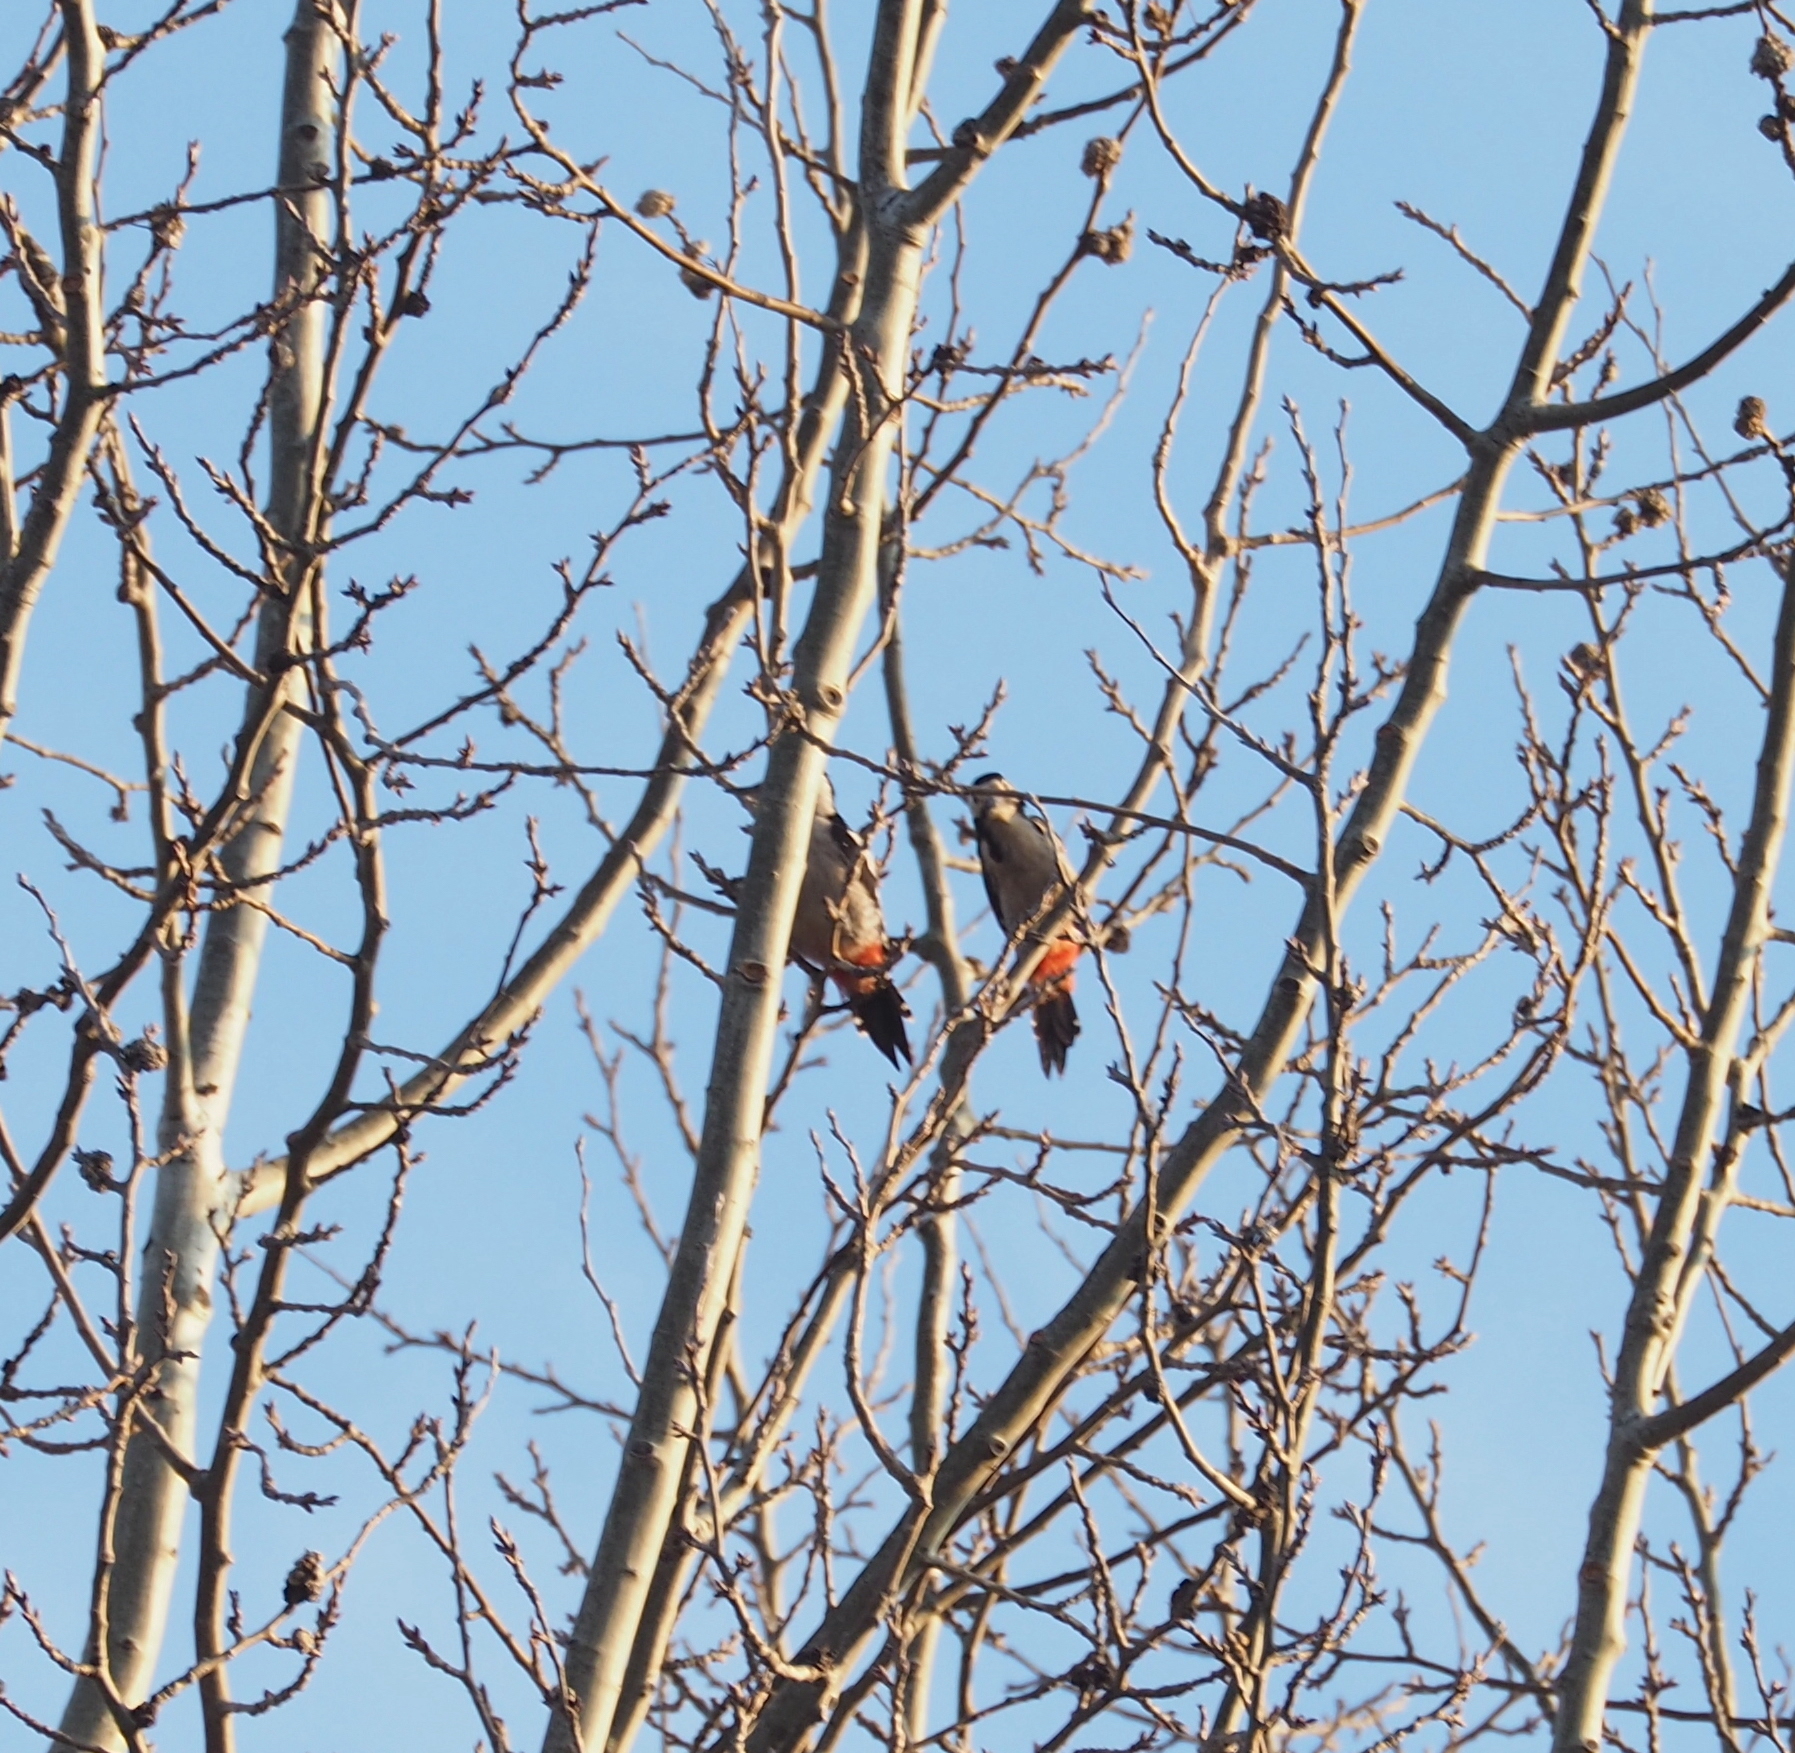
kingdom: Animalia
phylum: Chordata
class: Aves
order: Piciformes
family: Picidae
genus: Dendrocopos
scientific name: Dendrocopos syriacus
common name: Syrian woodpecker
